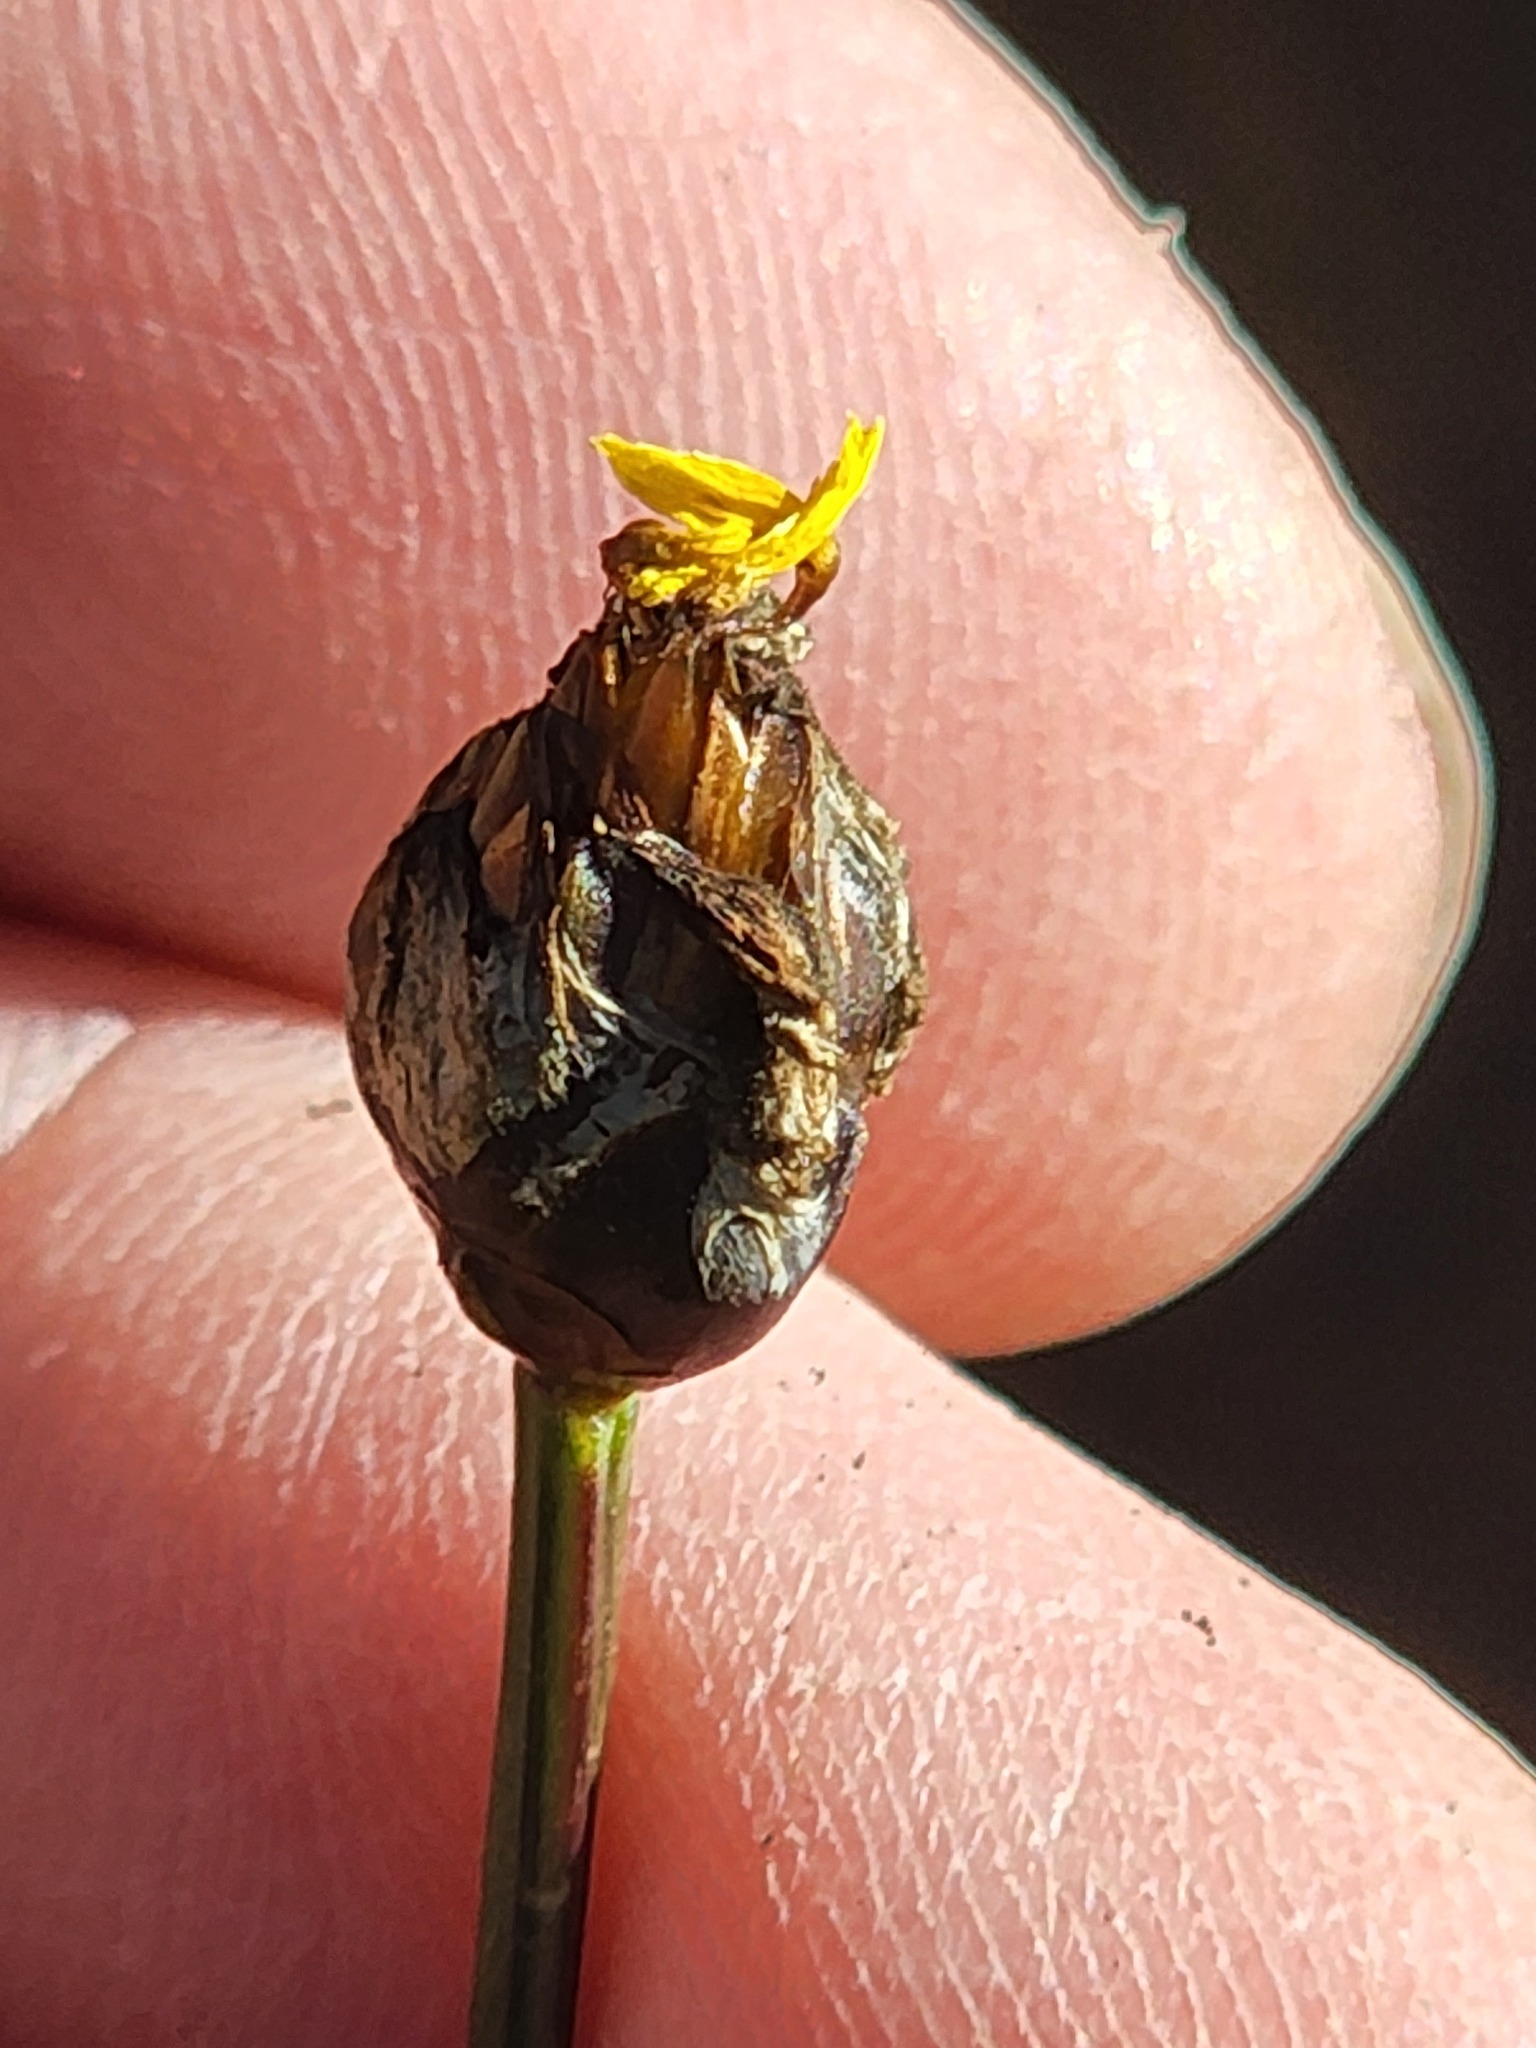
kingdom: Plantae
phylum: Tracheophyta
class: Liliopsida
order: Poales
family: Xyridaceae
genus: Xyris
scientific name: Xyris montana
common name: Northern yellow-eyed-grass
